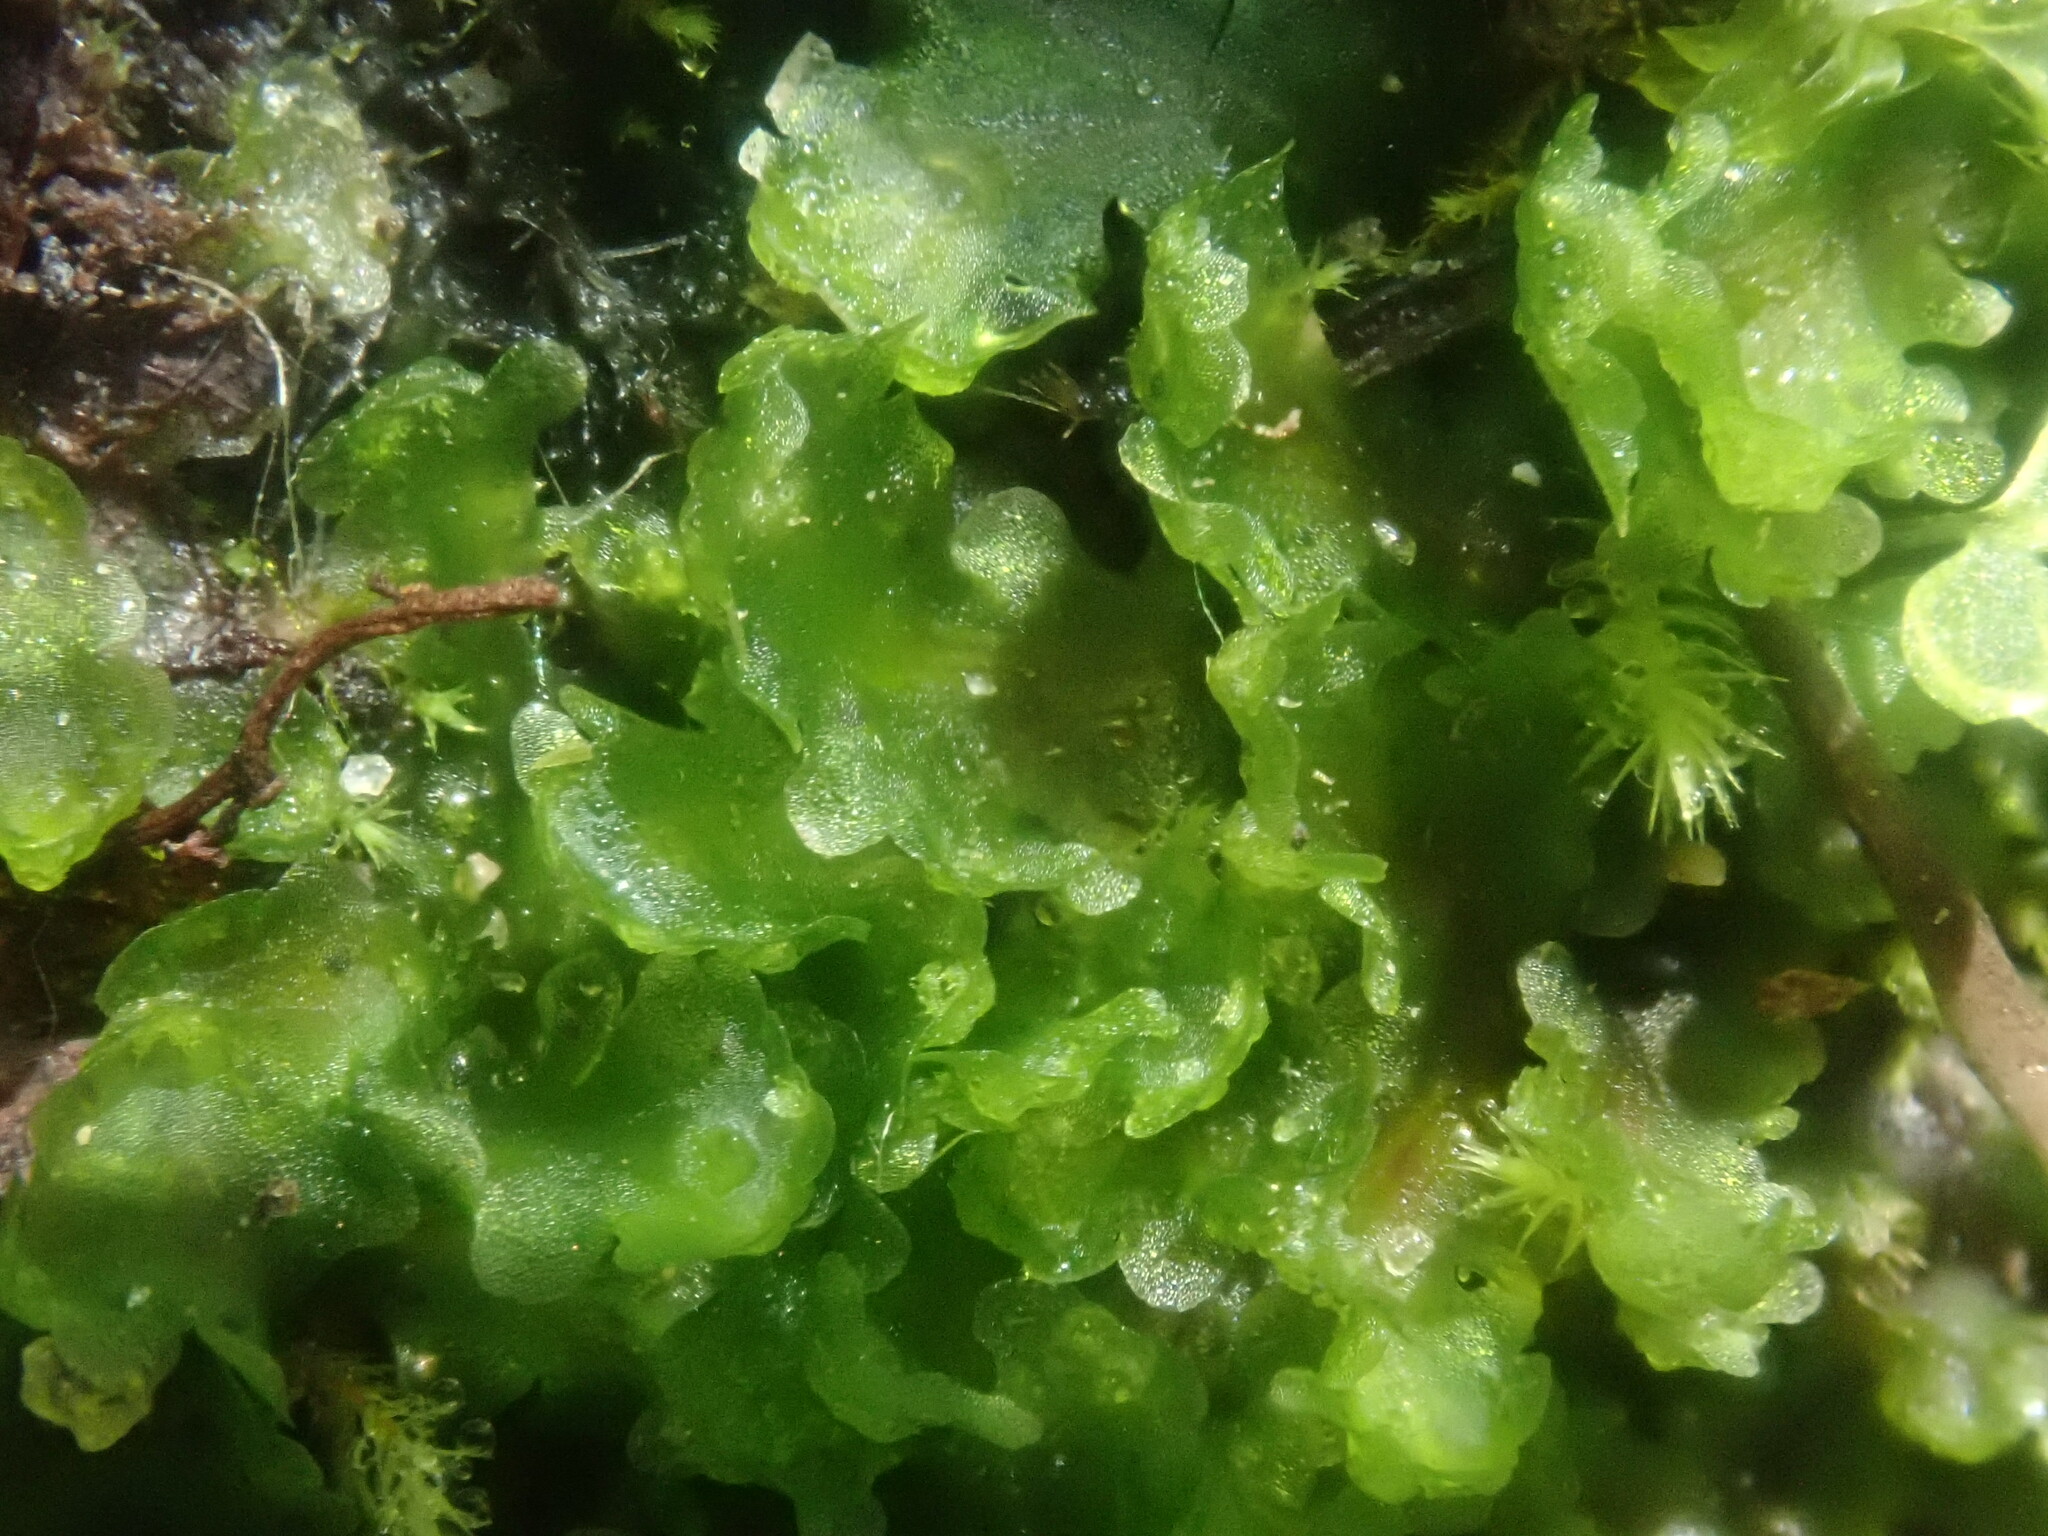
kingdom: Plantae
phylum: Marchantiophyta
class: Marchantiopsida
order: Blasiales
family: Blasiaceae
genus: Blasia
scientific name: Blasia pusilla
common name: Common kettlewort
